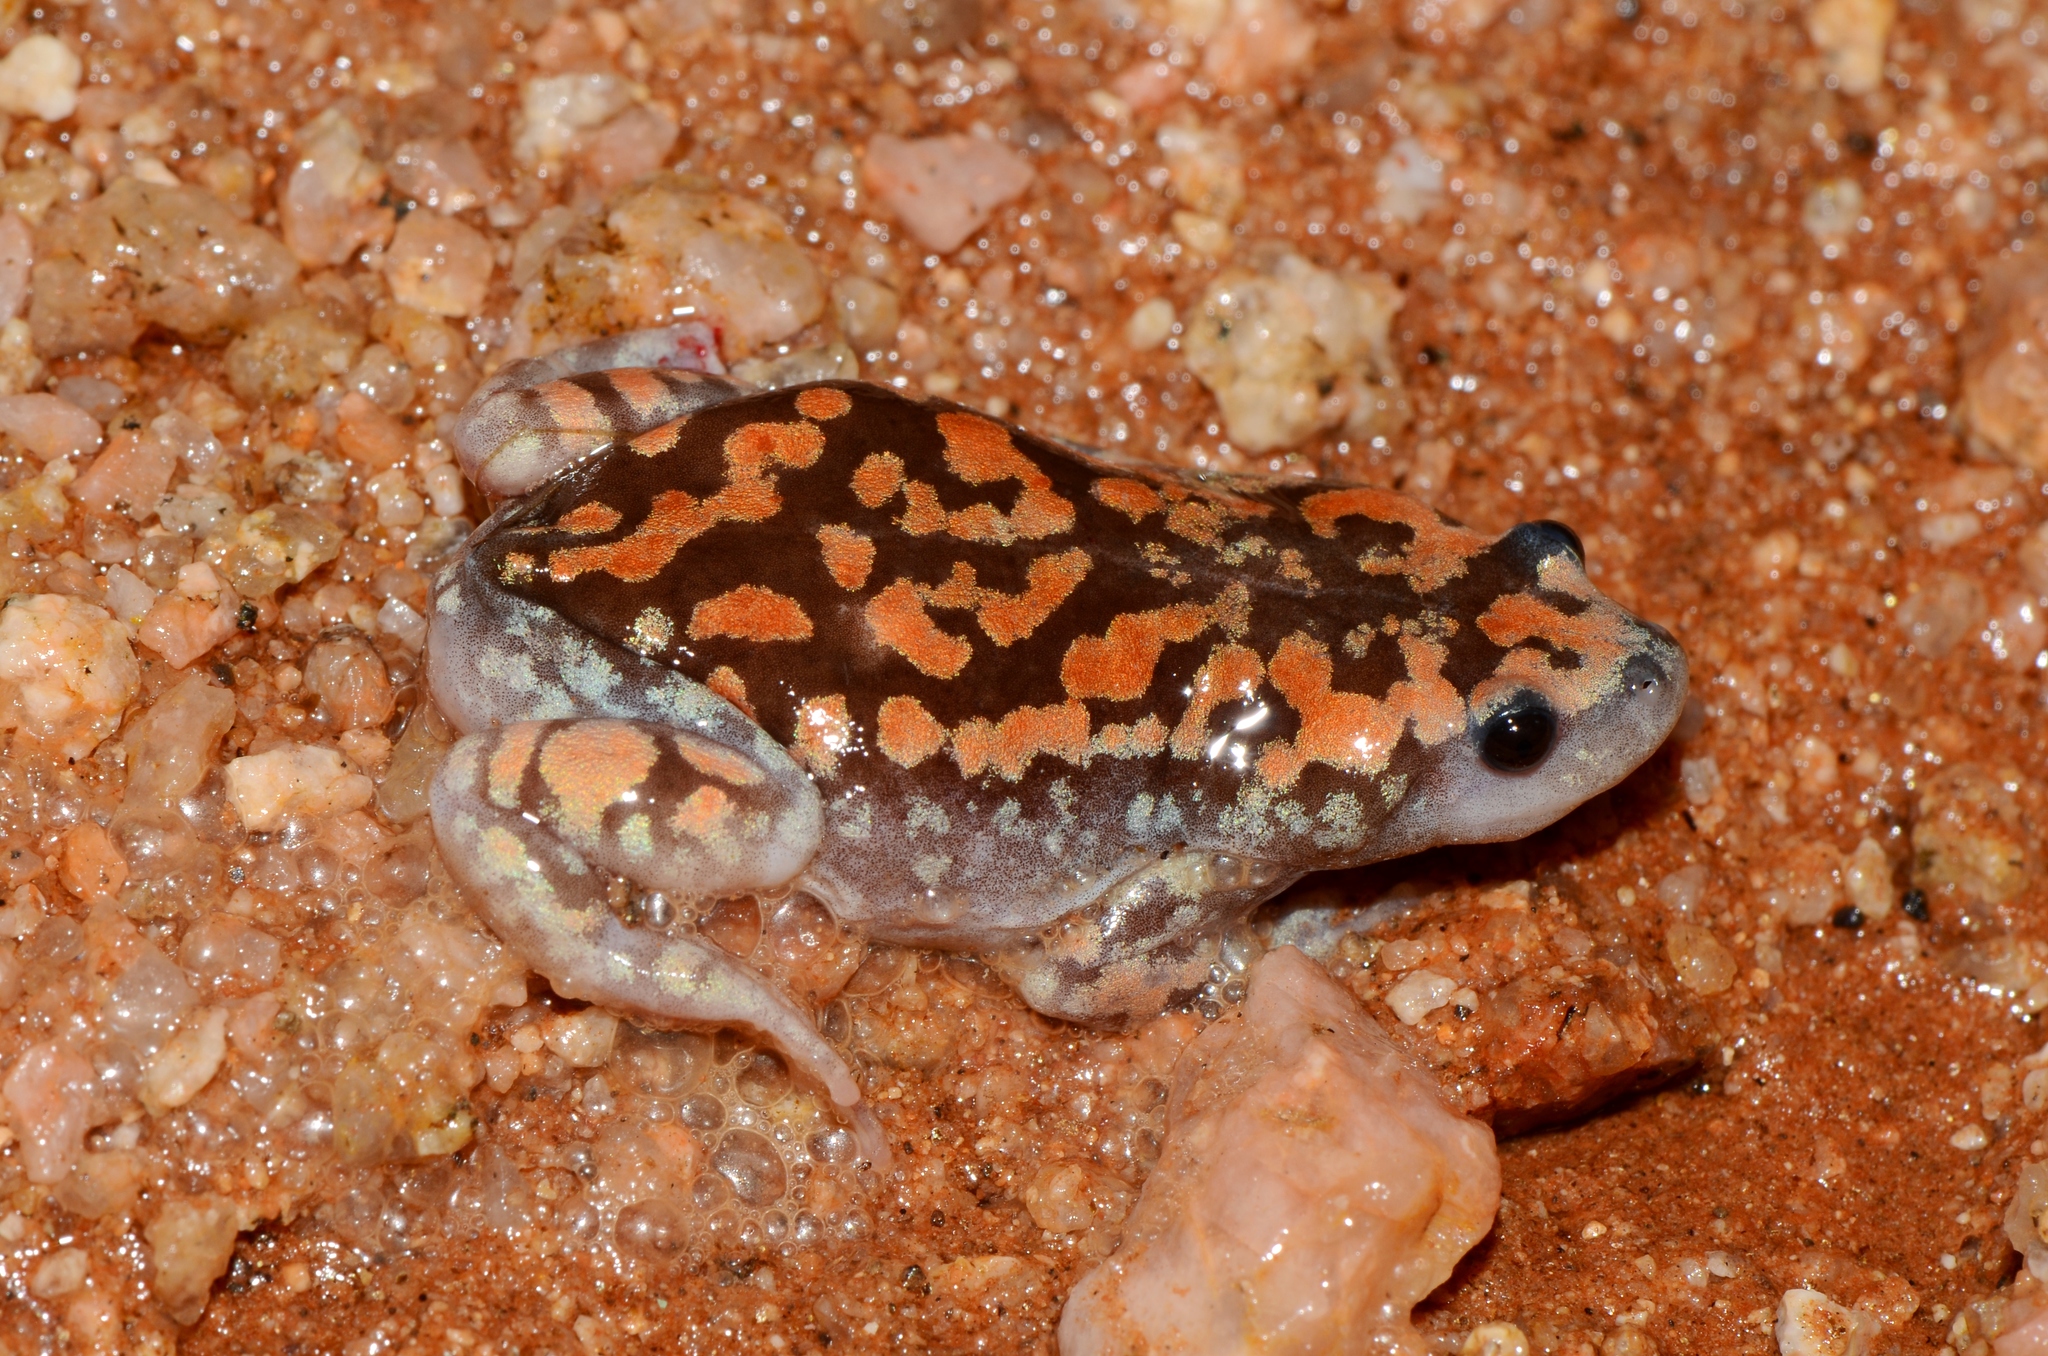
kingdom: Animalia
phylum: Chordata
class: Amphibia
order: Anura
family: Microhylidae
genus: Phrynomantis
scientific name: Phrynomantis annectens
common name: Marbled rubber frog
